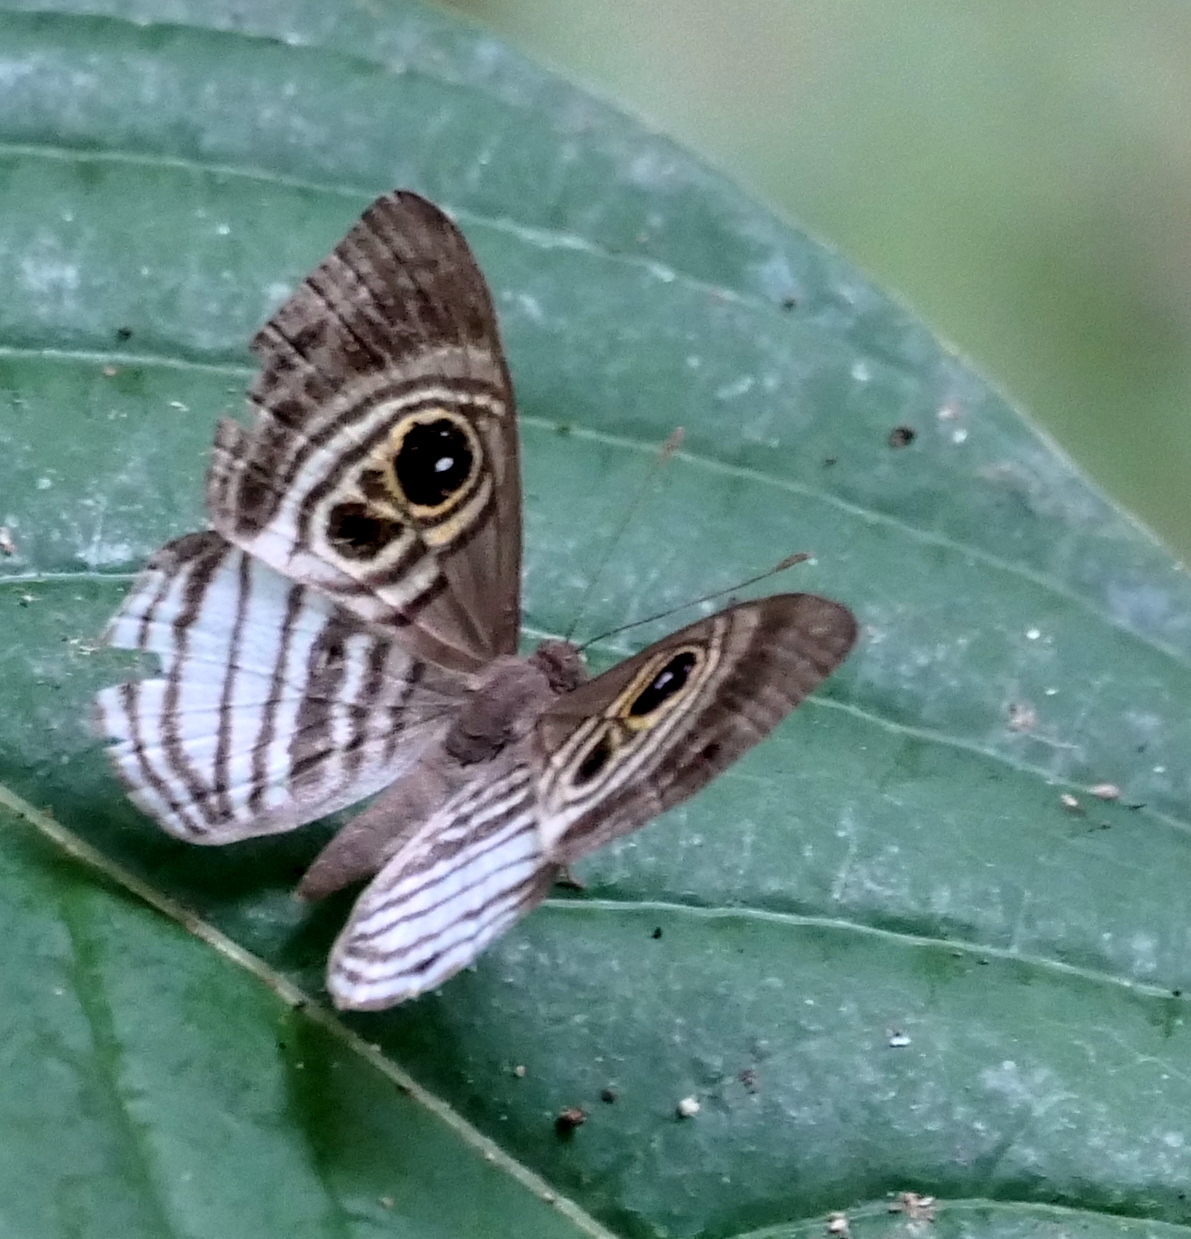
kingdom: Animalia
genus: Mesosemia
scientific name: Mesosemia minos
